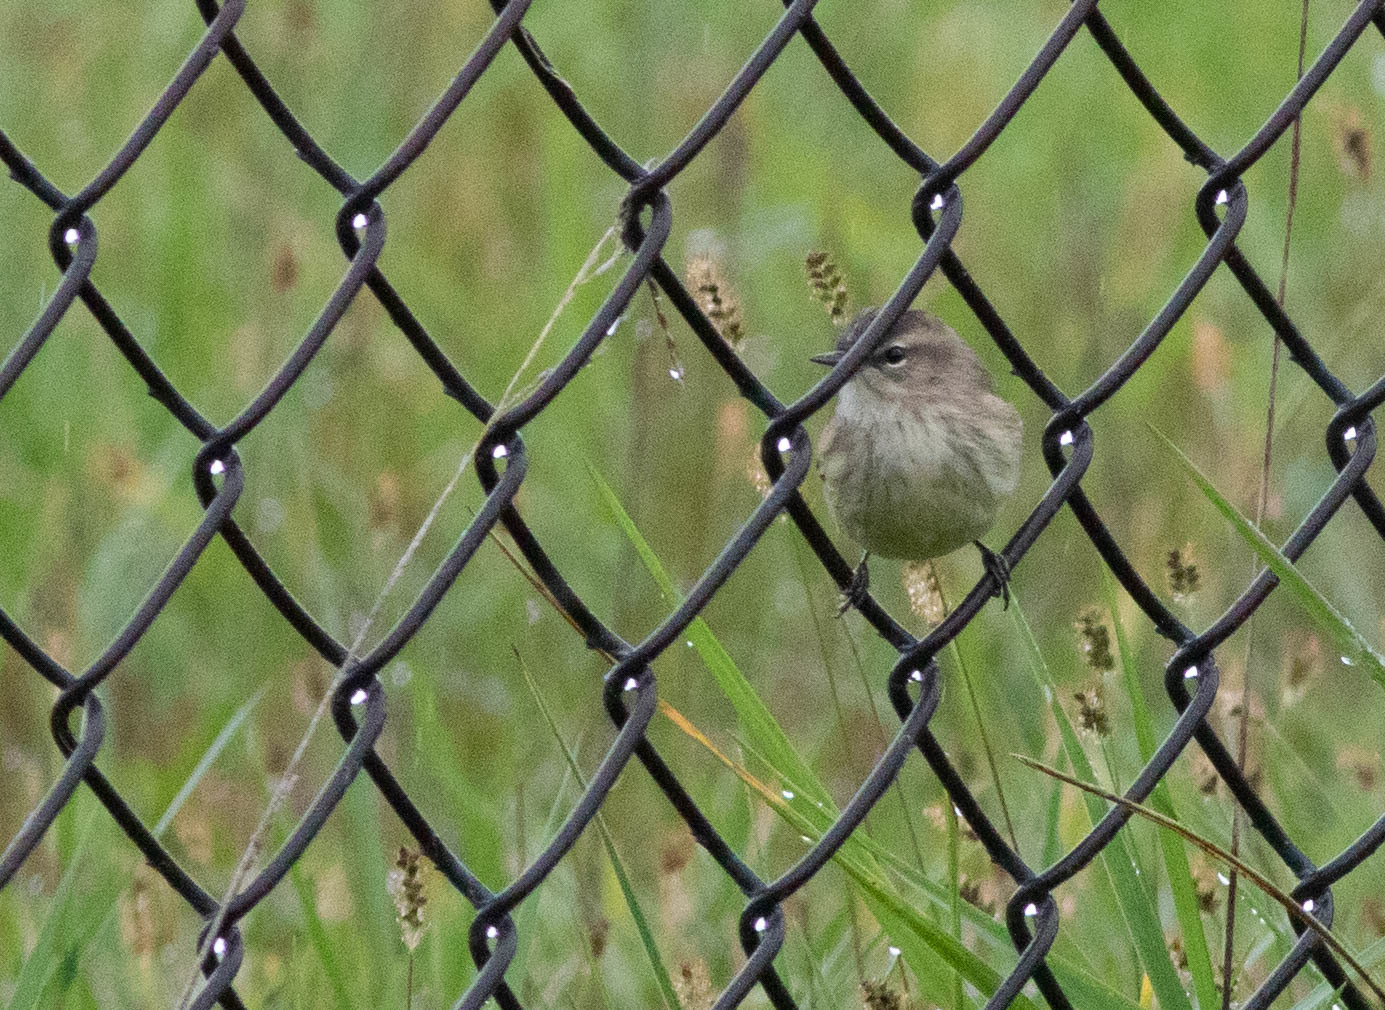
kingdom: Animalia
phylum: Chordata
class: Aves
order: Passeriformes
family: Parulidae
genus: Setophaga
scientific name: Setophaga palmarum
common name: Palm warbler
